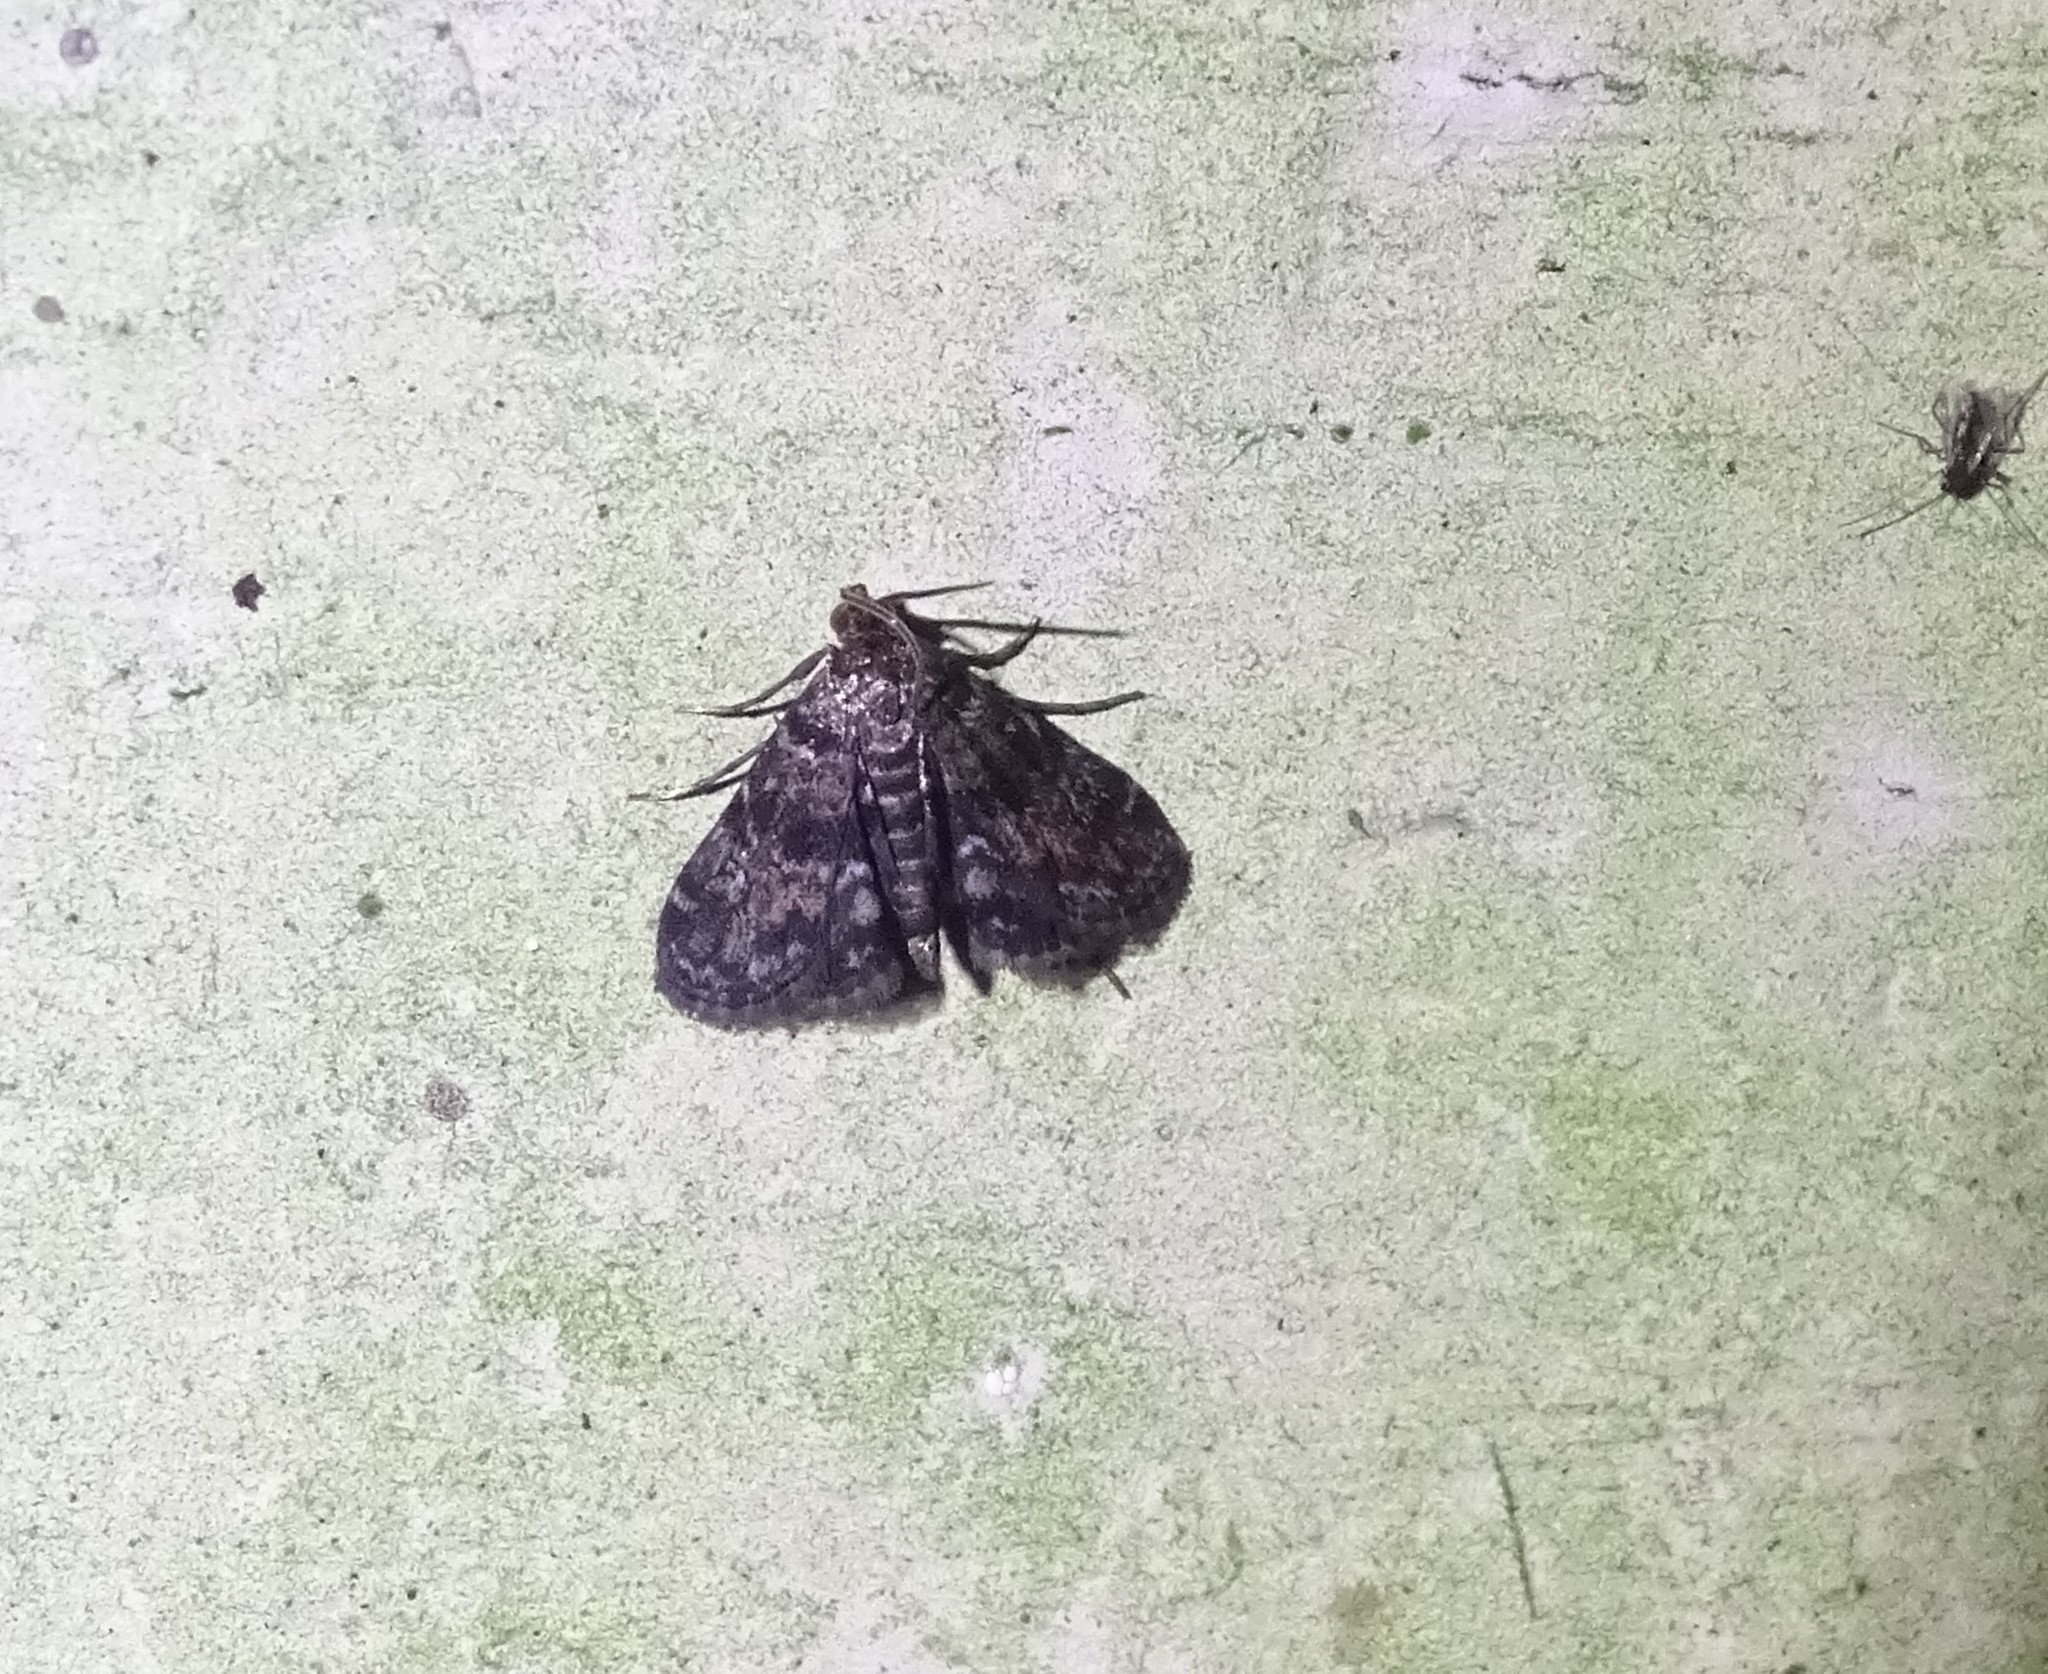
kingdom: Animalia
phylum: Arthropoda
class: Insecta
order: Lepidoptera
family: Crambidae
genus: Elophila
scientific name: Elophila obliteralis
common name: Waterlily leafcutter moth
